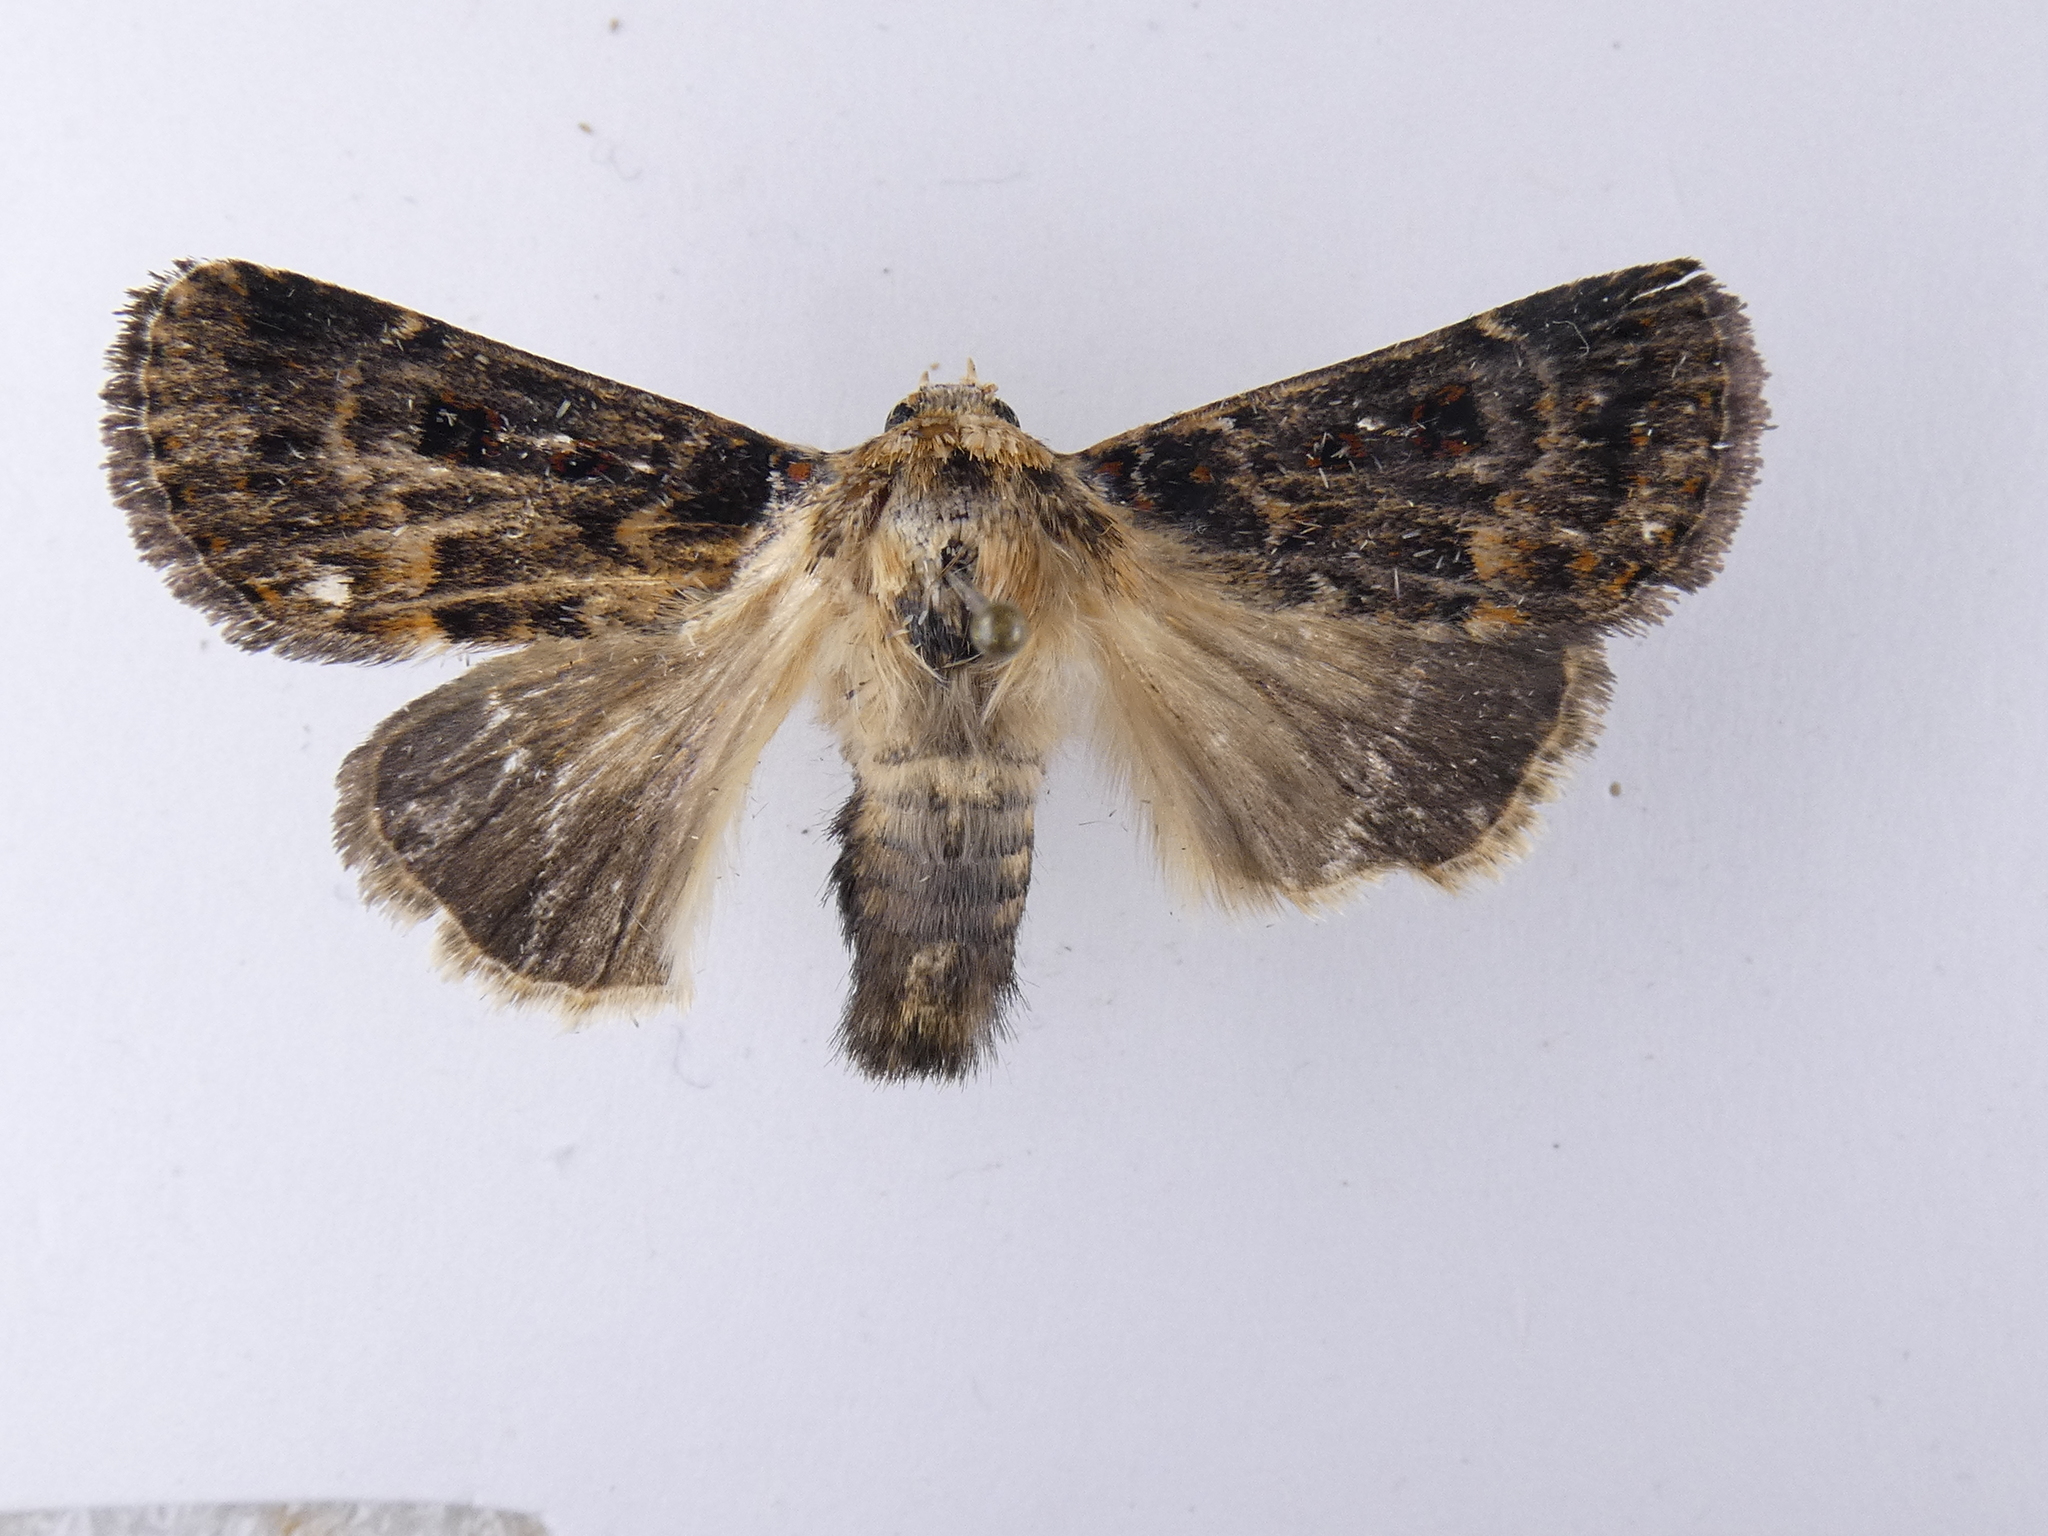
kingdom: Animalia
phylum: Arthropoda
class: Insecta
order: Lepidoptera
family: Noctuidae
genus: Proteuxoa
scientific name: Proteuxoa sanguinipuncta
